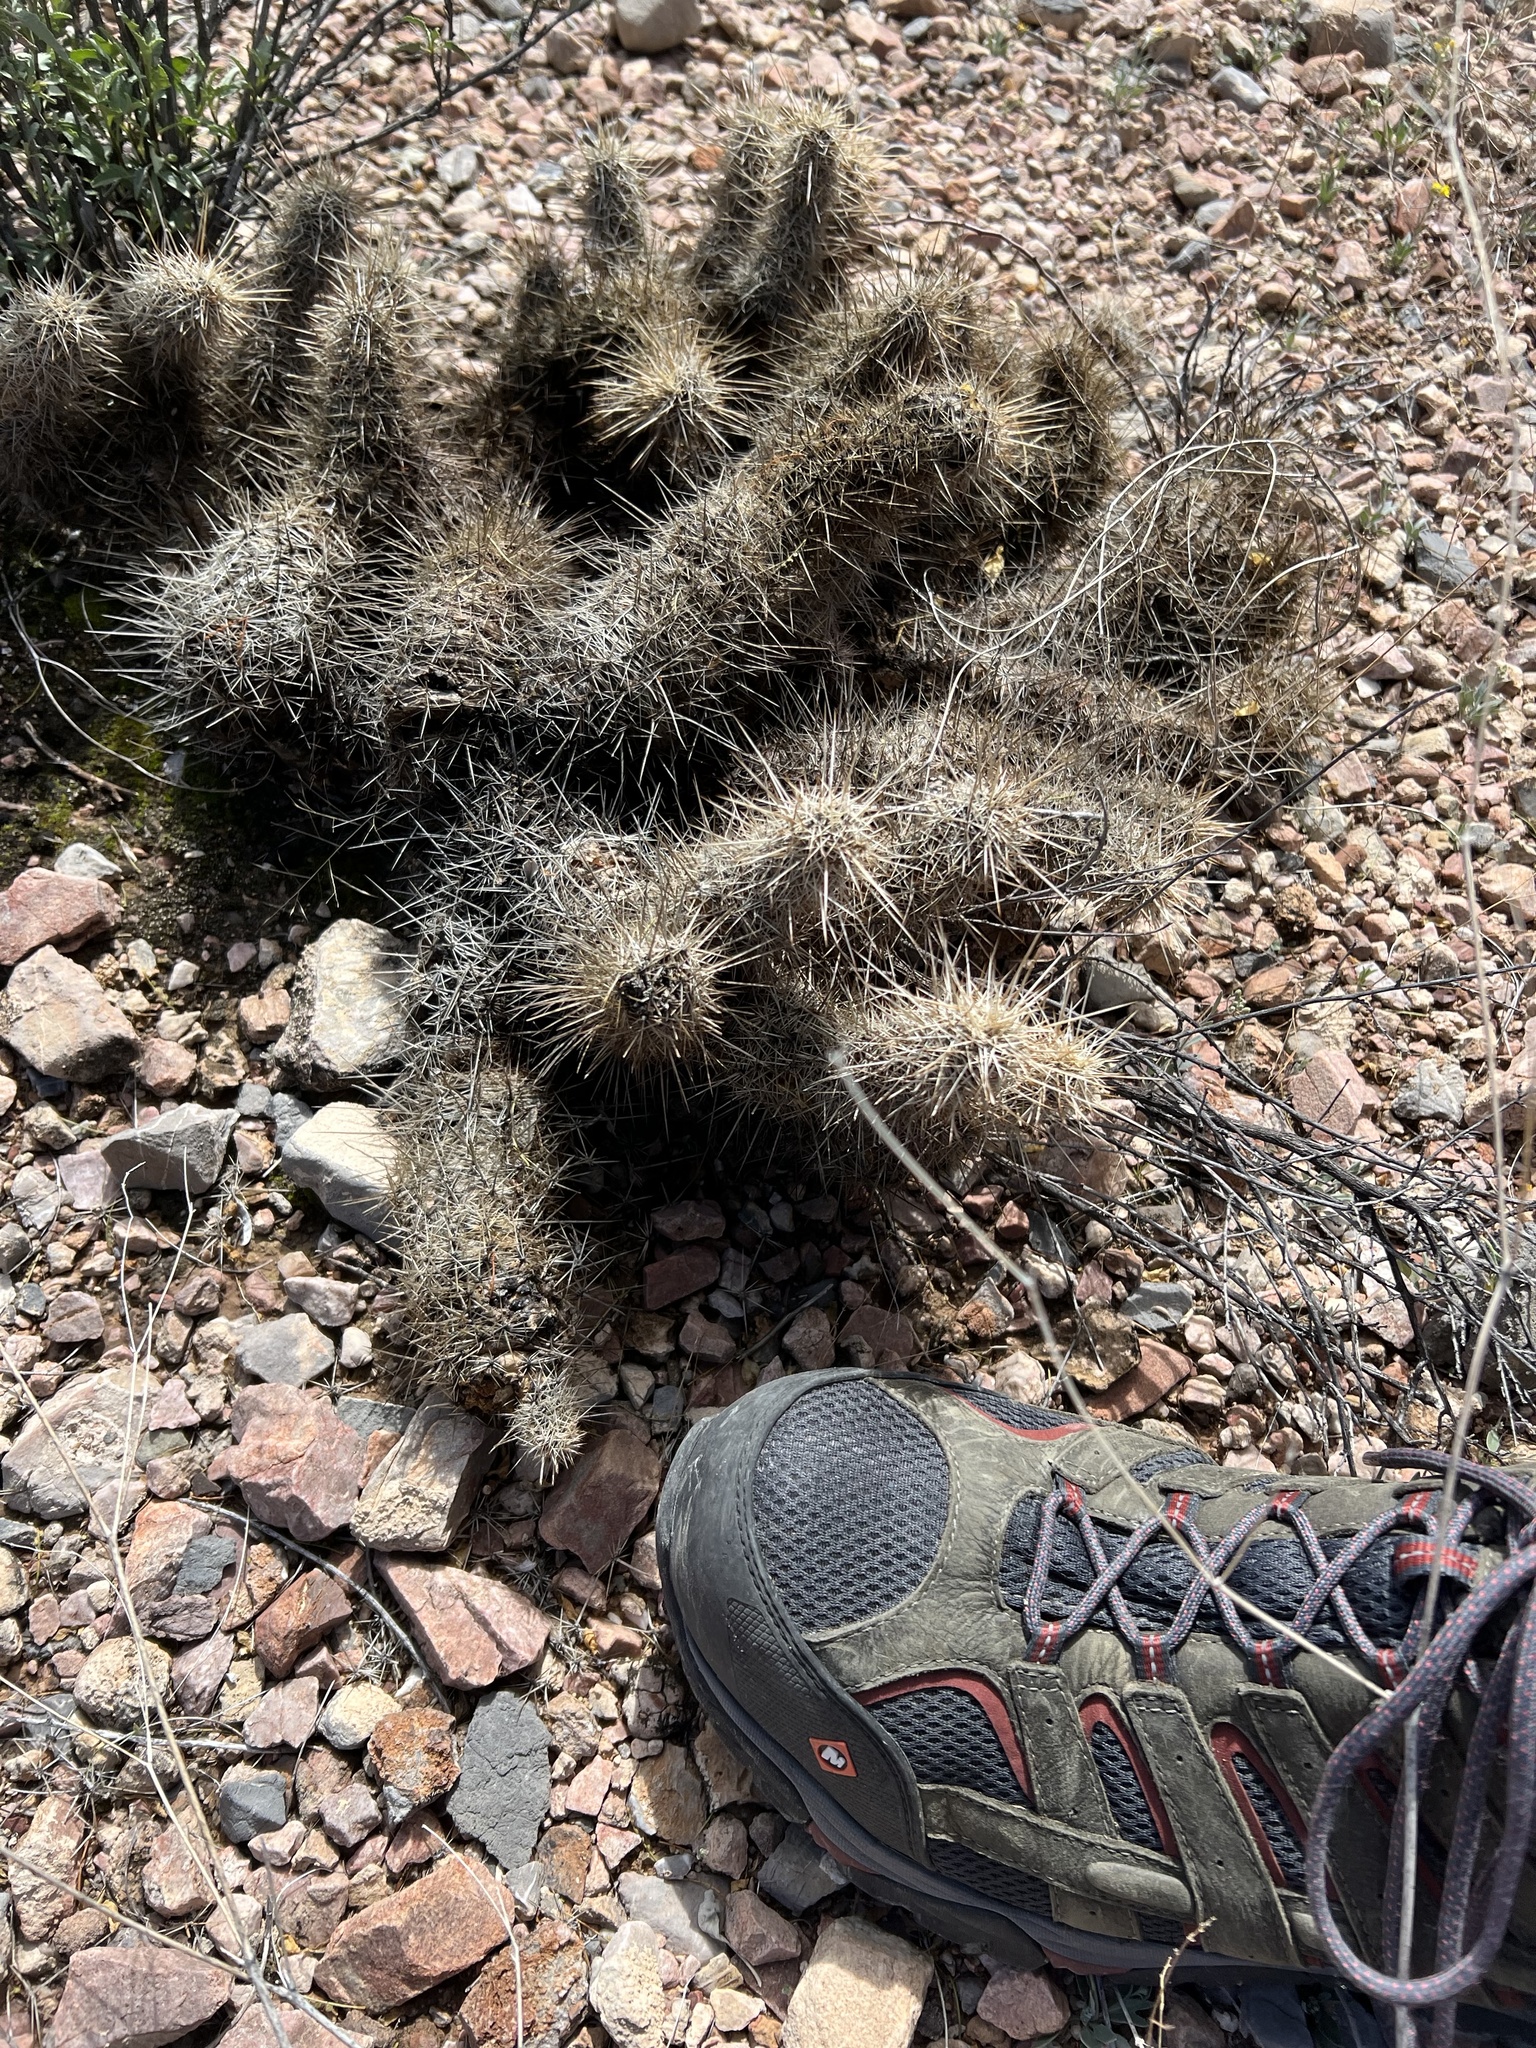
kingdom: Plantae
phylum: Tracheophyta
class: Magnoliopsida
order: Caryophyllales
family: Cactaceae
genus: Echinocereus
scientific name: Echinocereus fasciculatus
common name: Bundle hedgehog
